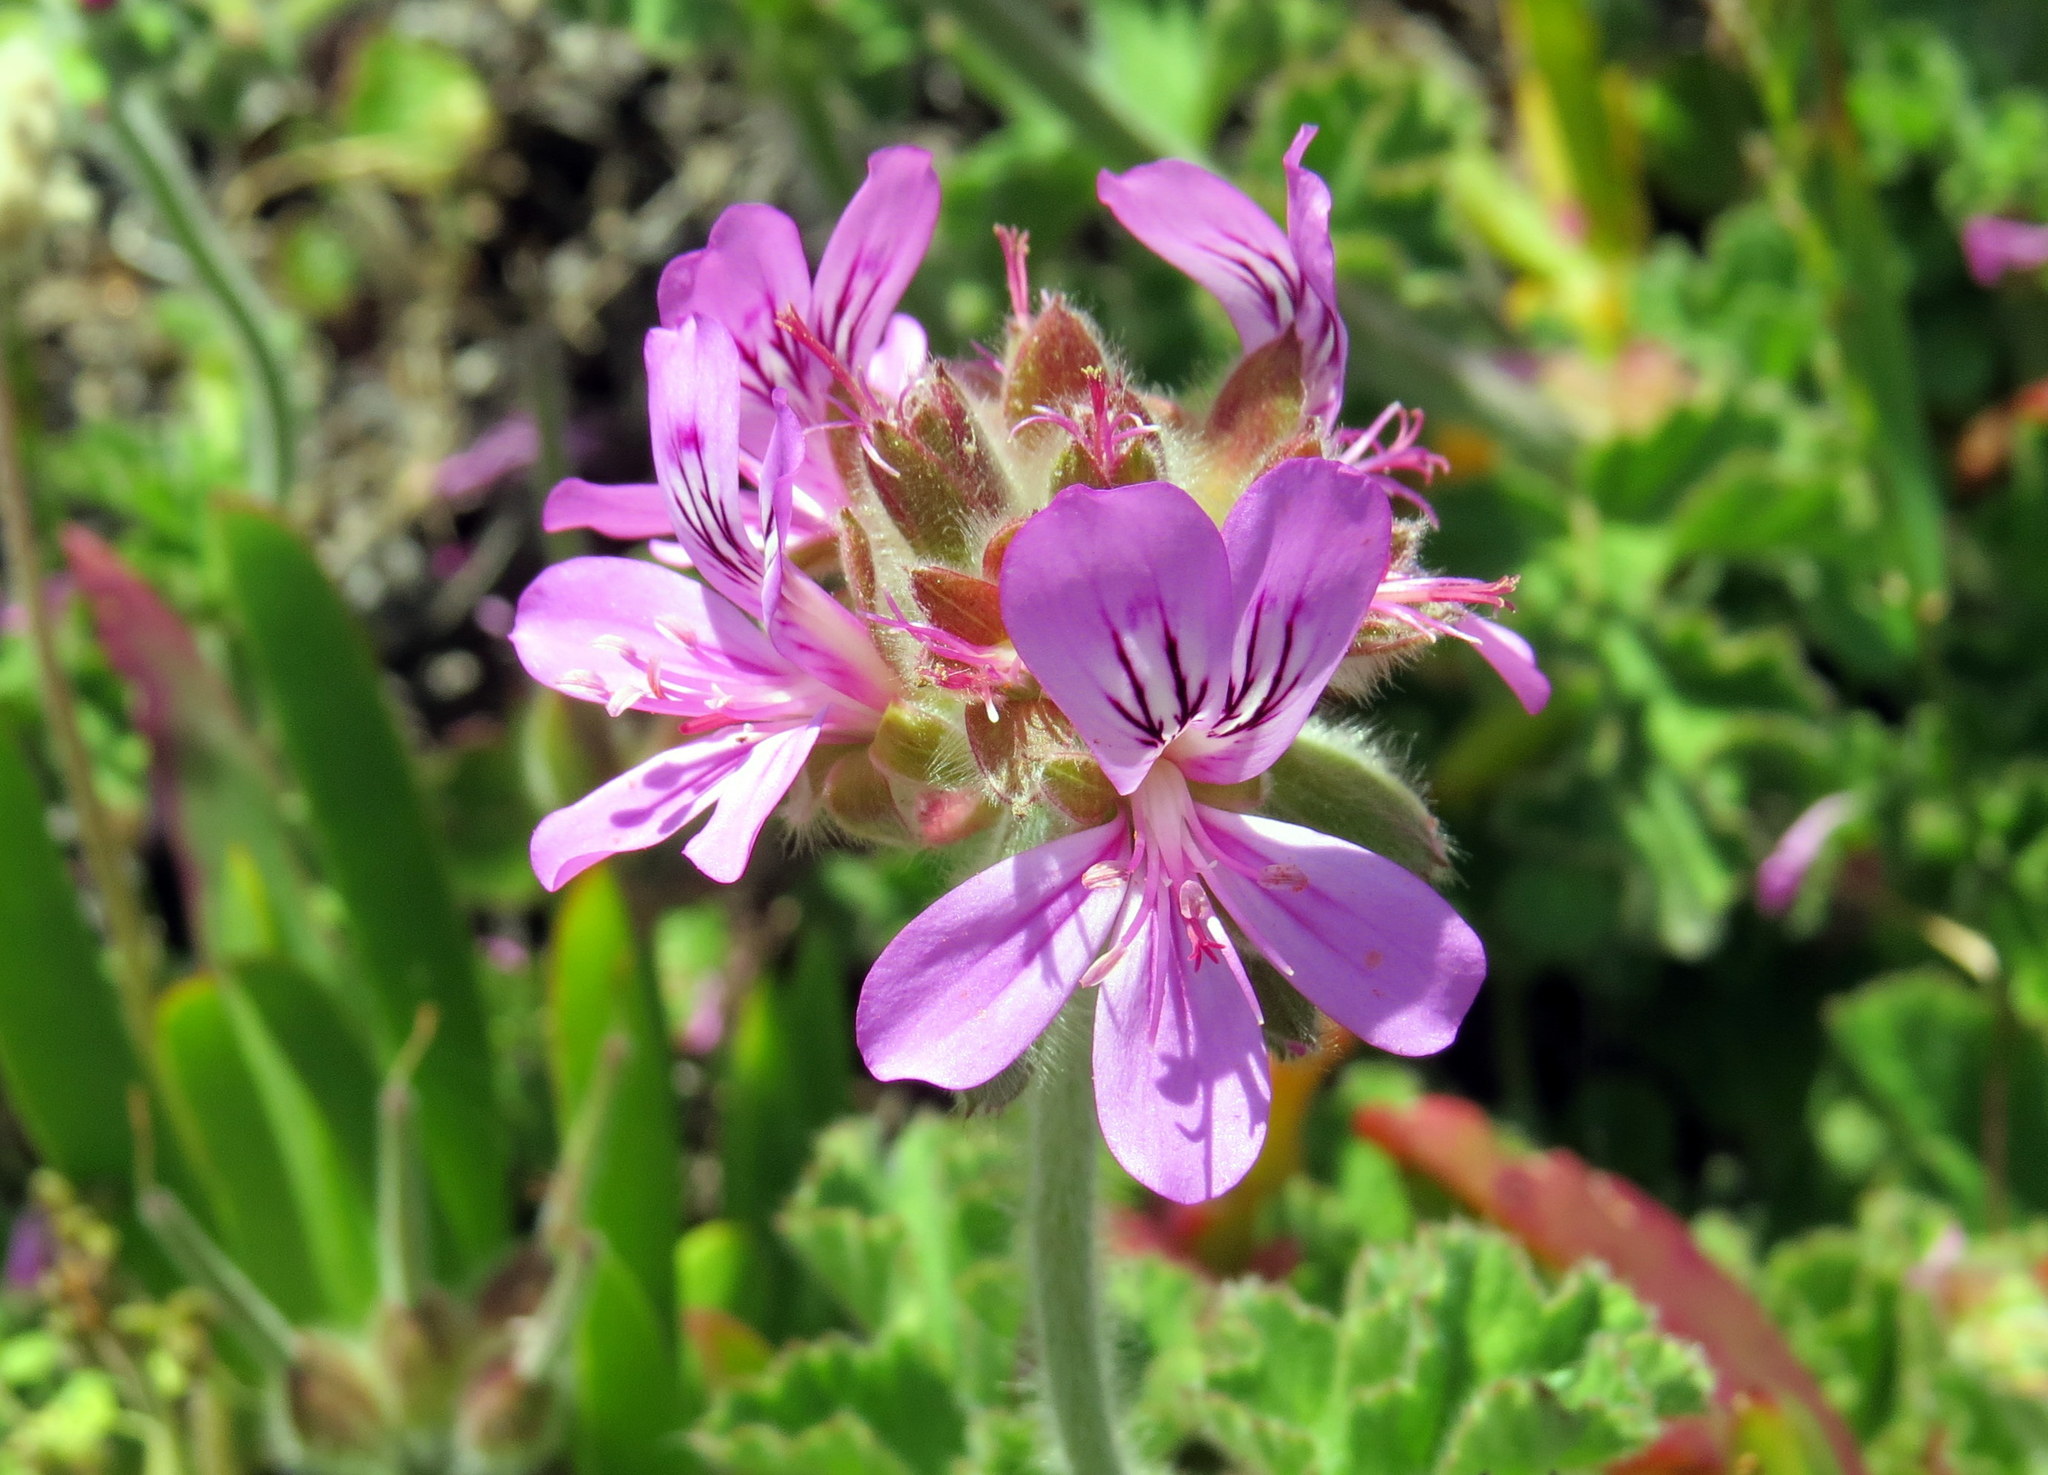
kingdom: Plantae
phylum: Tracheophyta
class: Magnoliopsida
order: Geraniales
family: Geraniaceae
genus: Pelargonium
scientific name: Pelargonium capitatum
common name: Rose scented geranium
